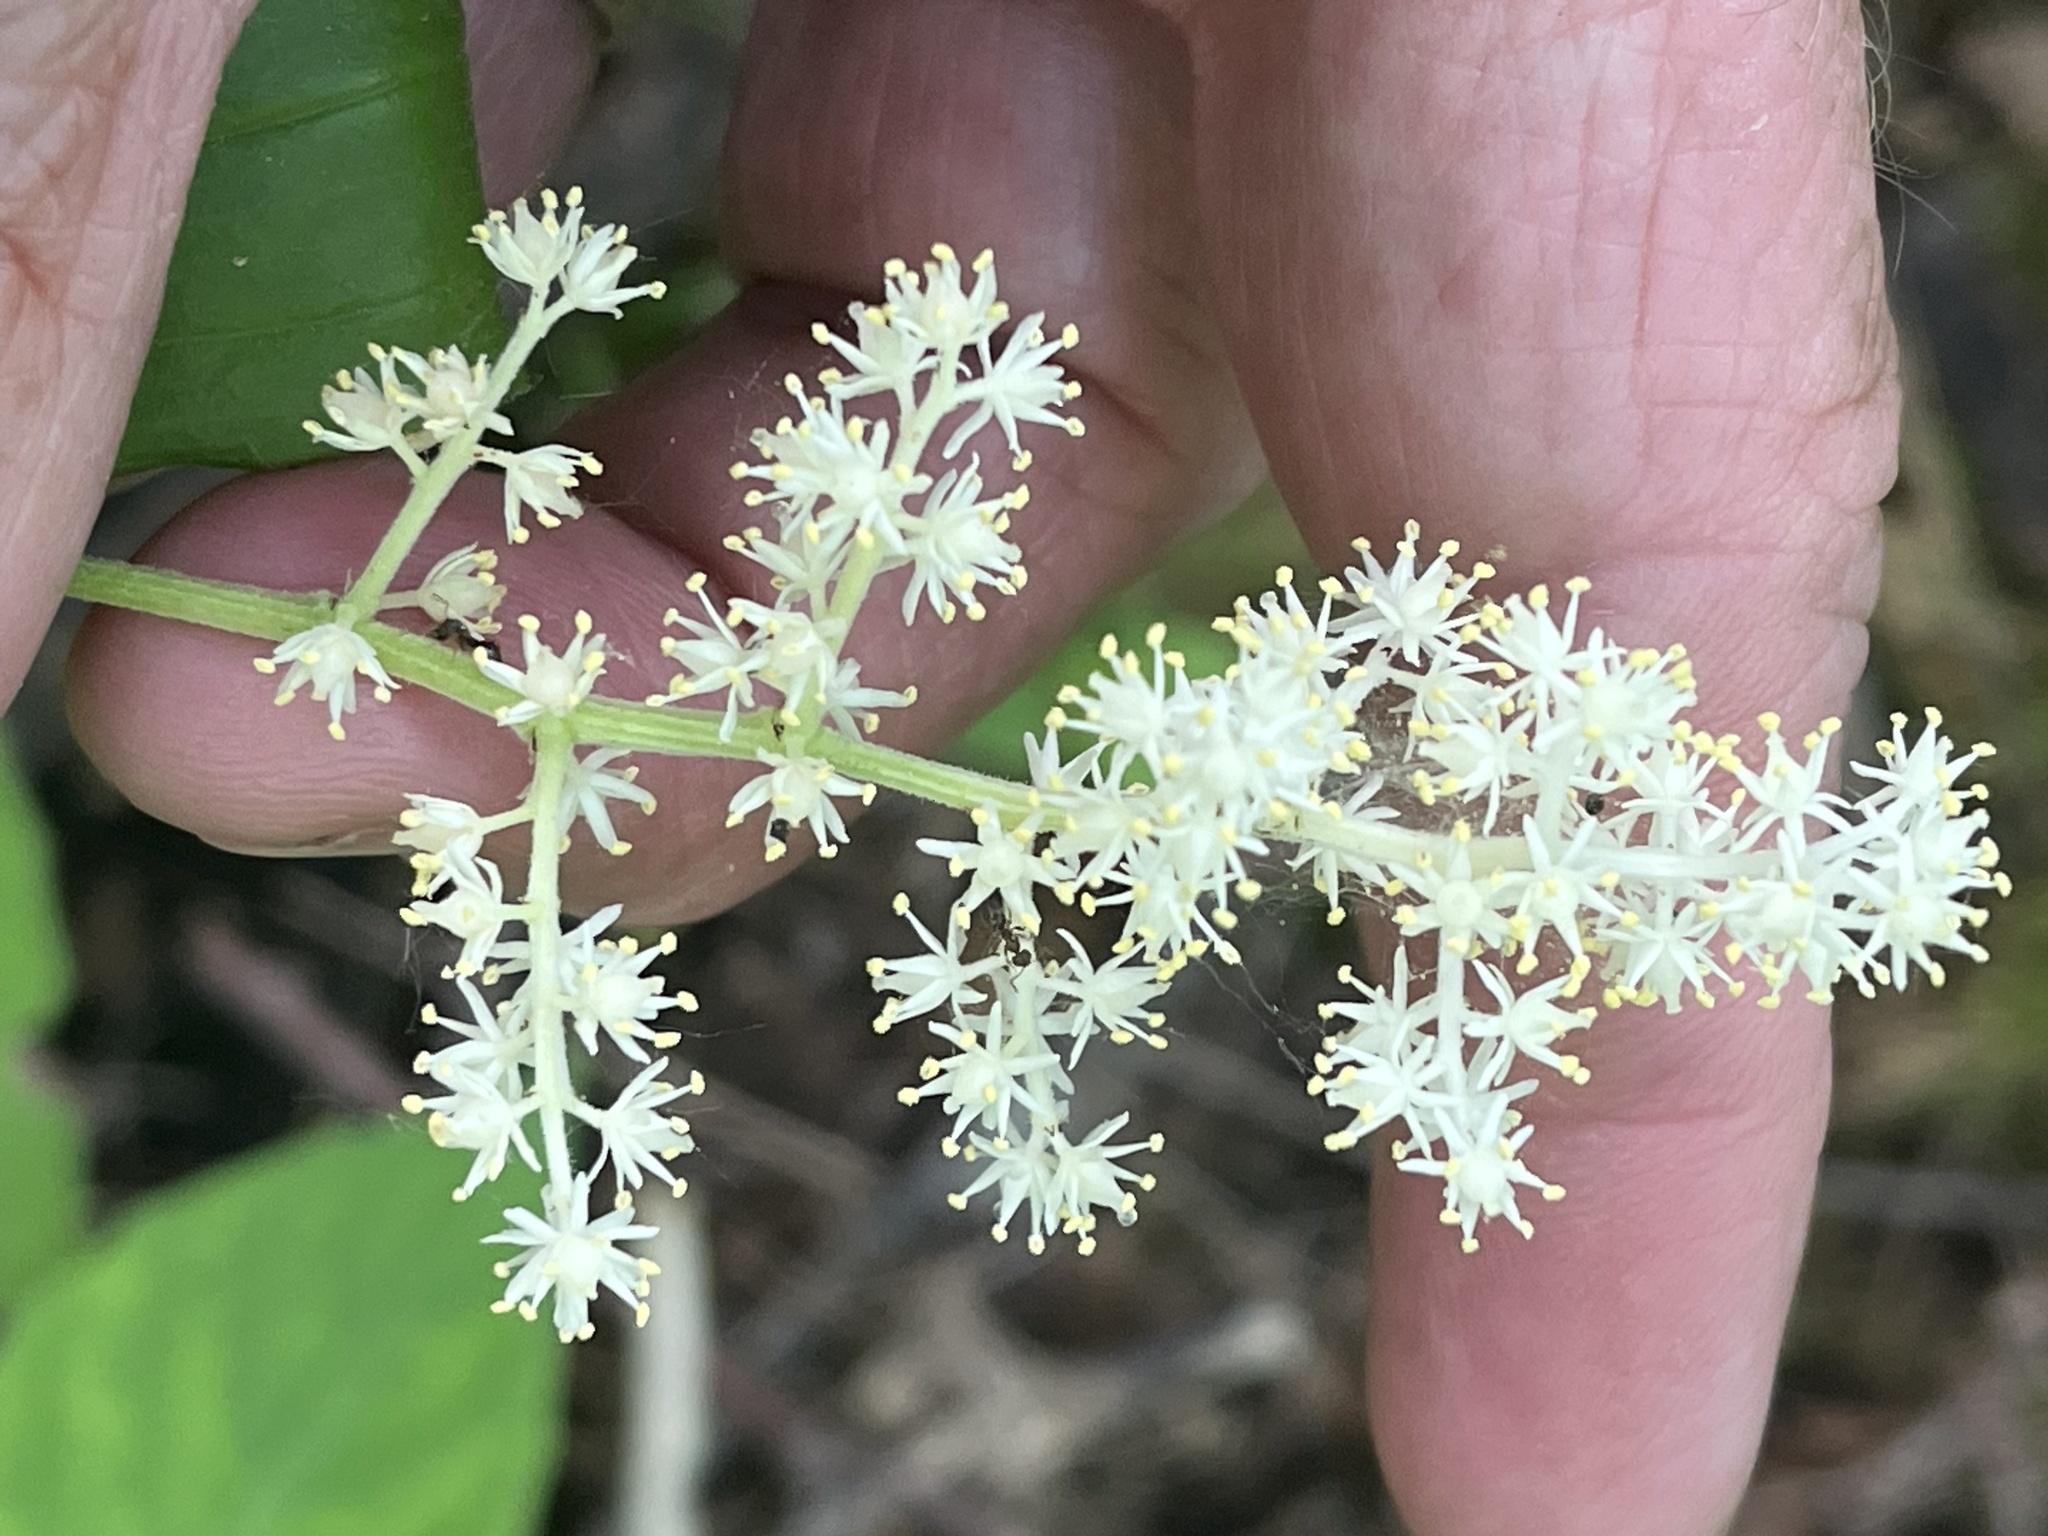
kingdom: Plantae
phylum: Tracheophyta
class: Liliopsida
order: Asparagales
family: Asparagaceae
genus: Maianthemum
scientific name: Maianthemum racemosum
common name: False spikenard
